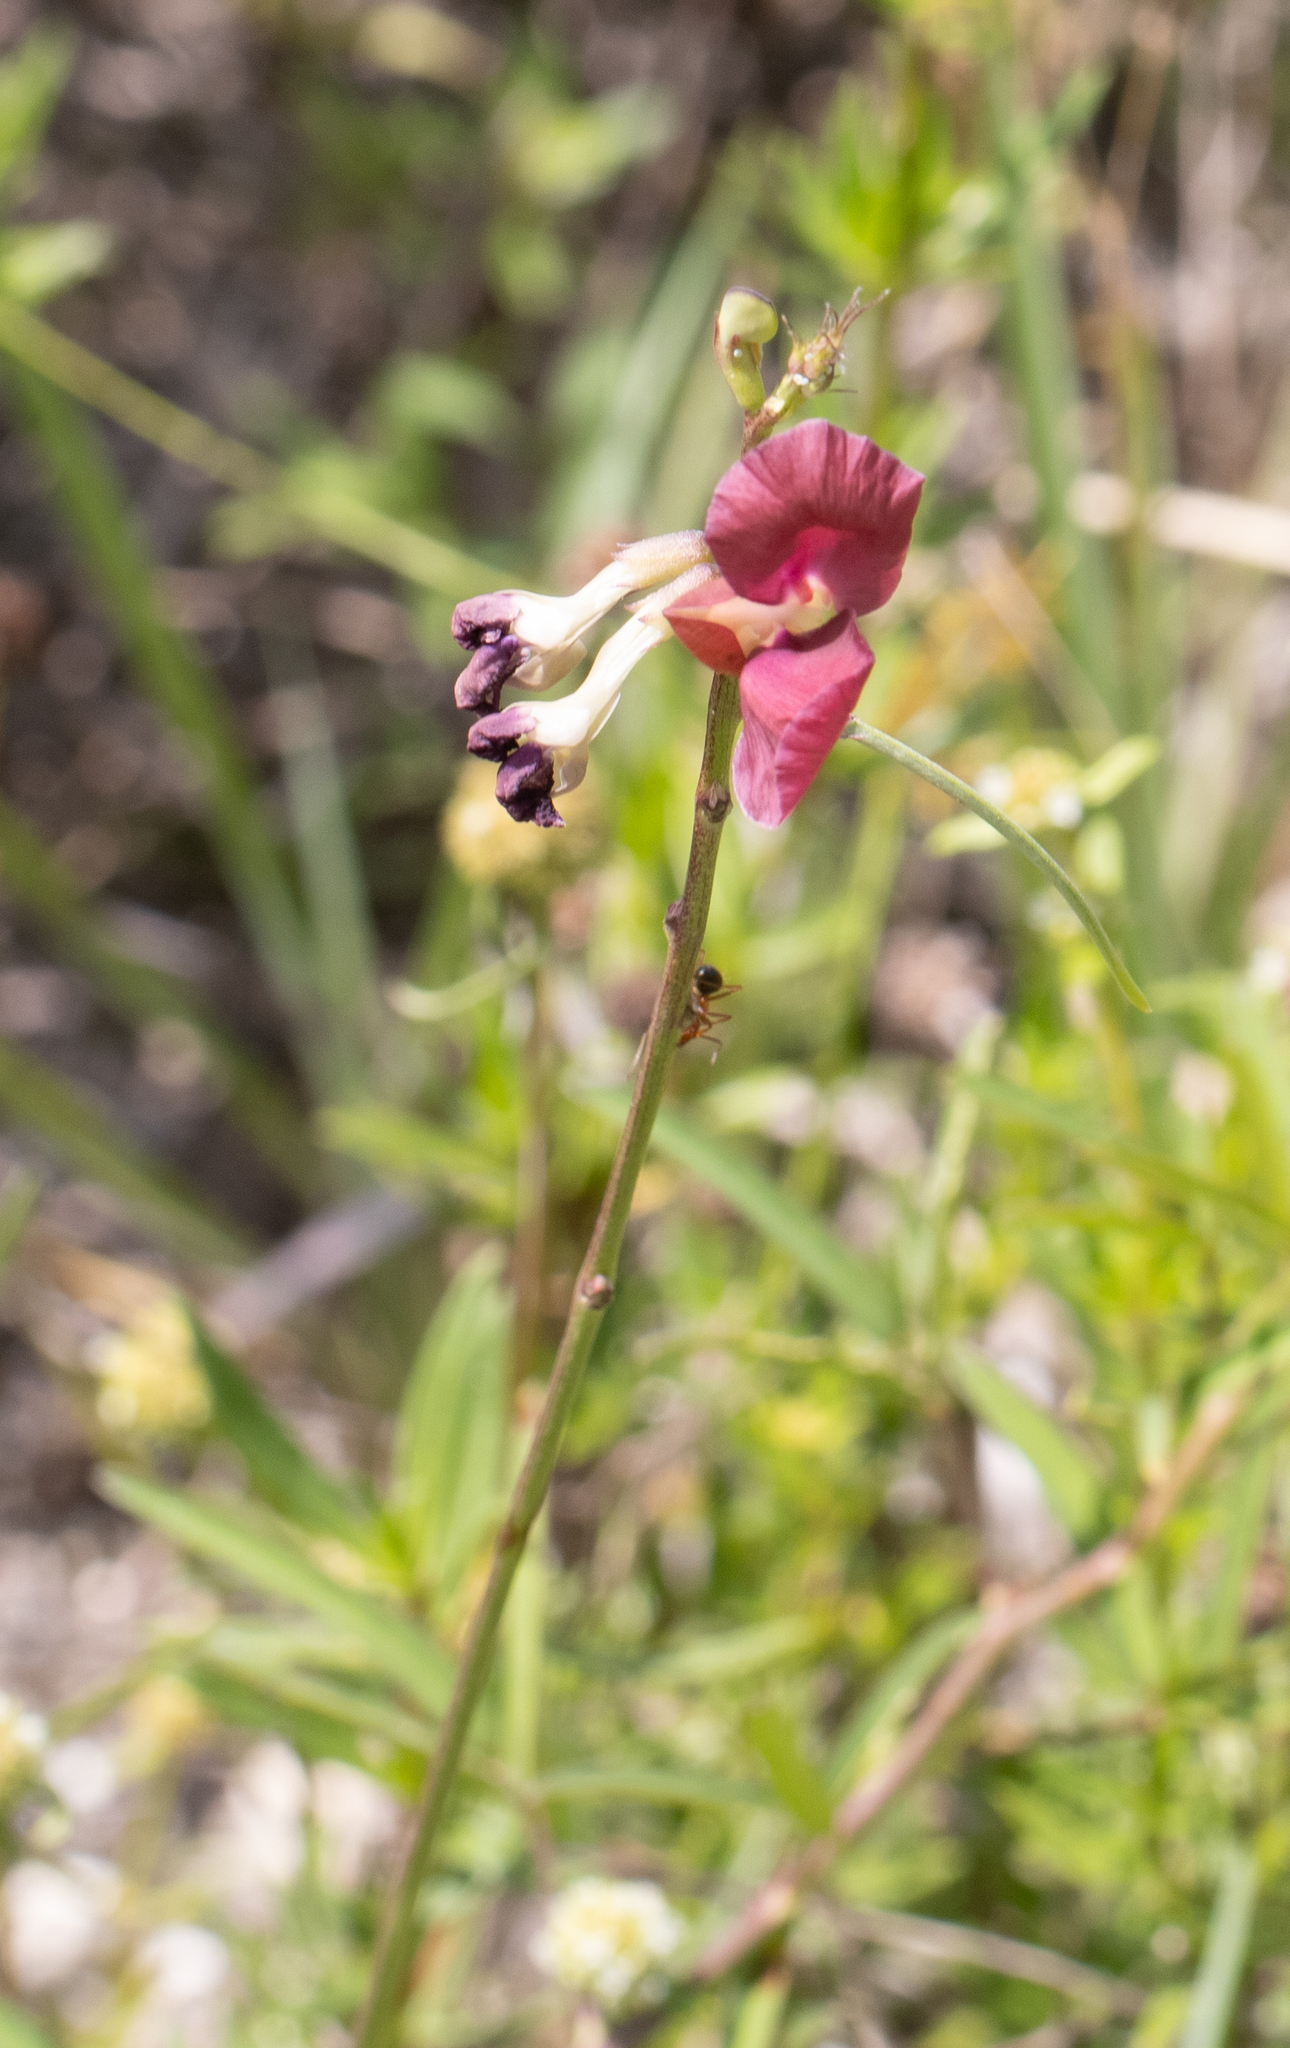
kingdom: Plantae
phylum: Tracheophyta
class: Magnoliopsida
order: Fabales
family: Fabaceae
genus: Macroptilium
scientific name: Macroptilium lathyroides
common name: Wild bushbean
